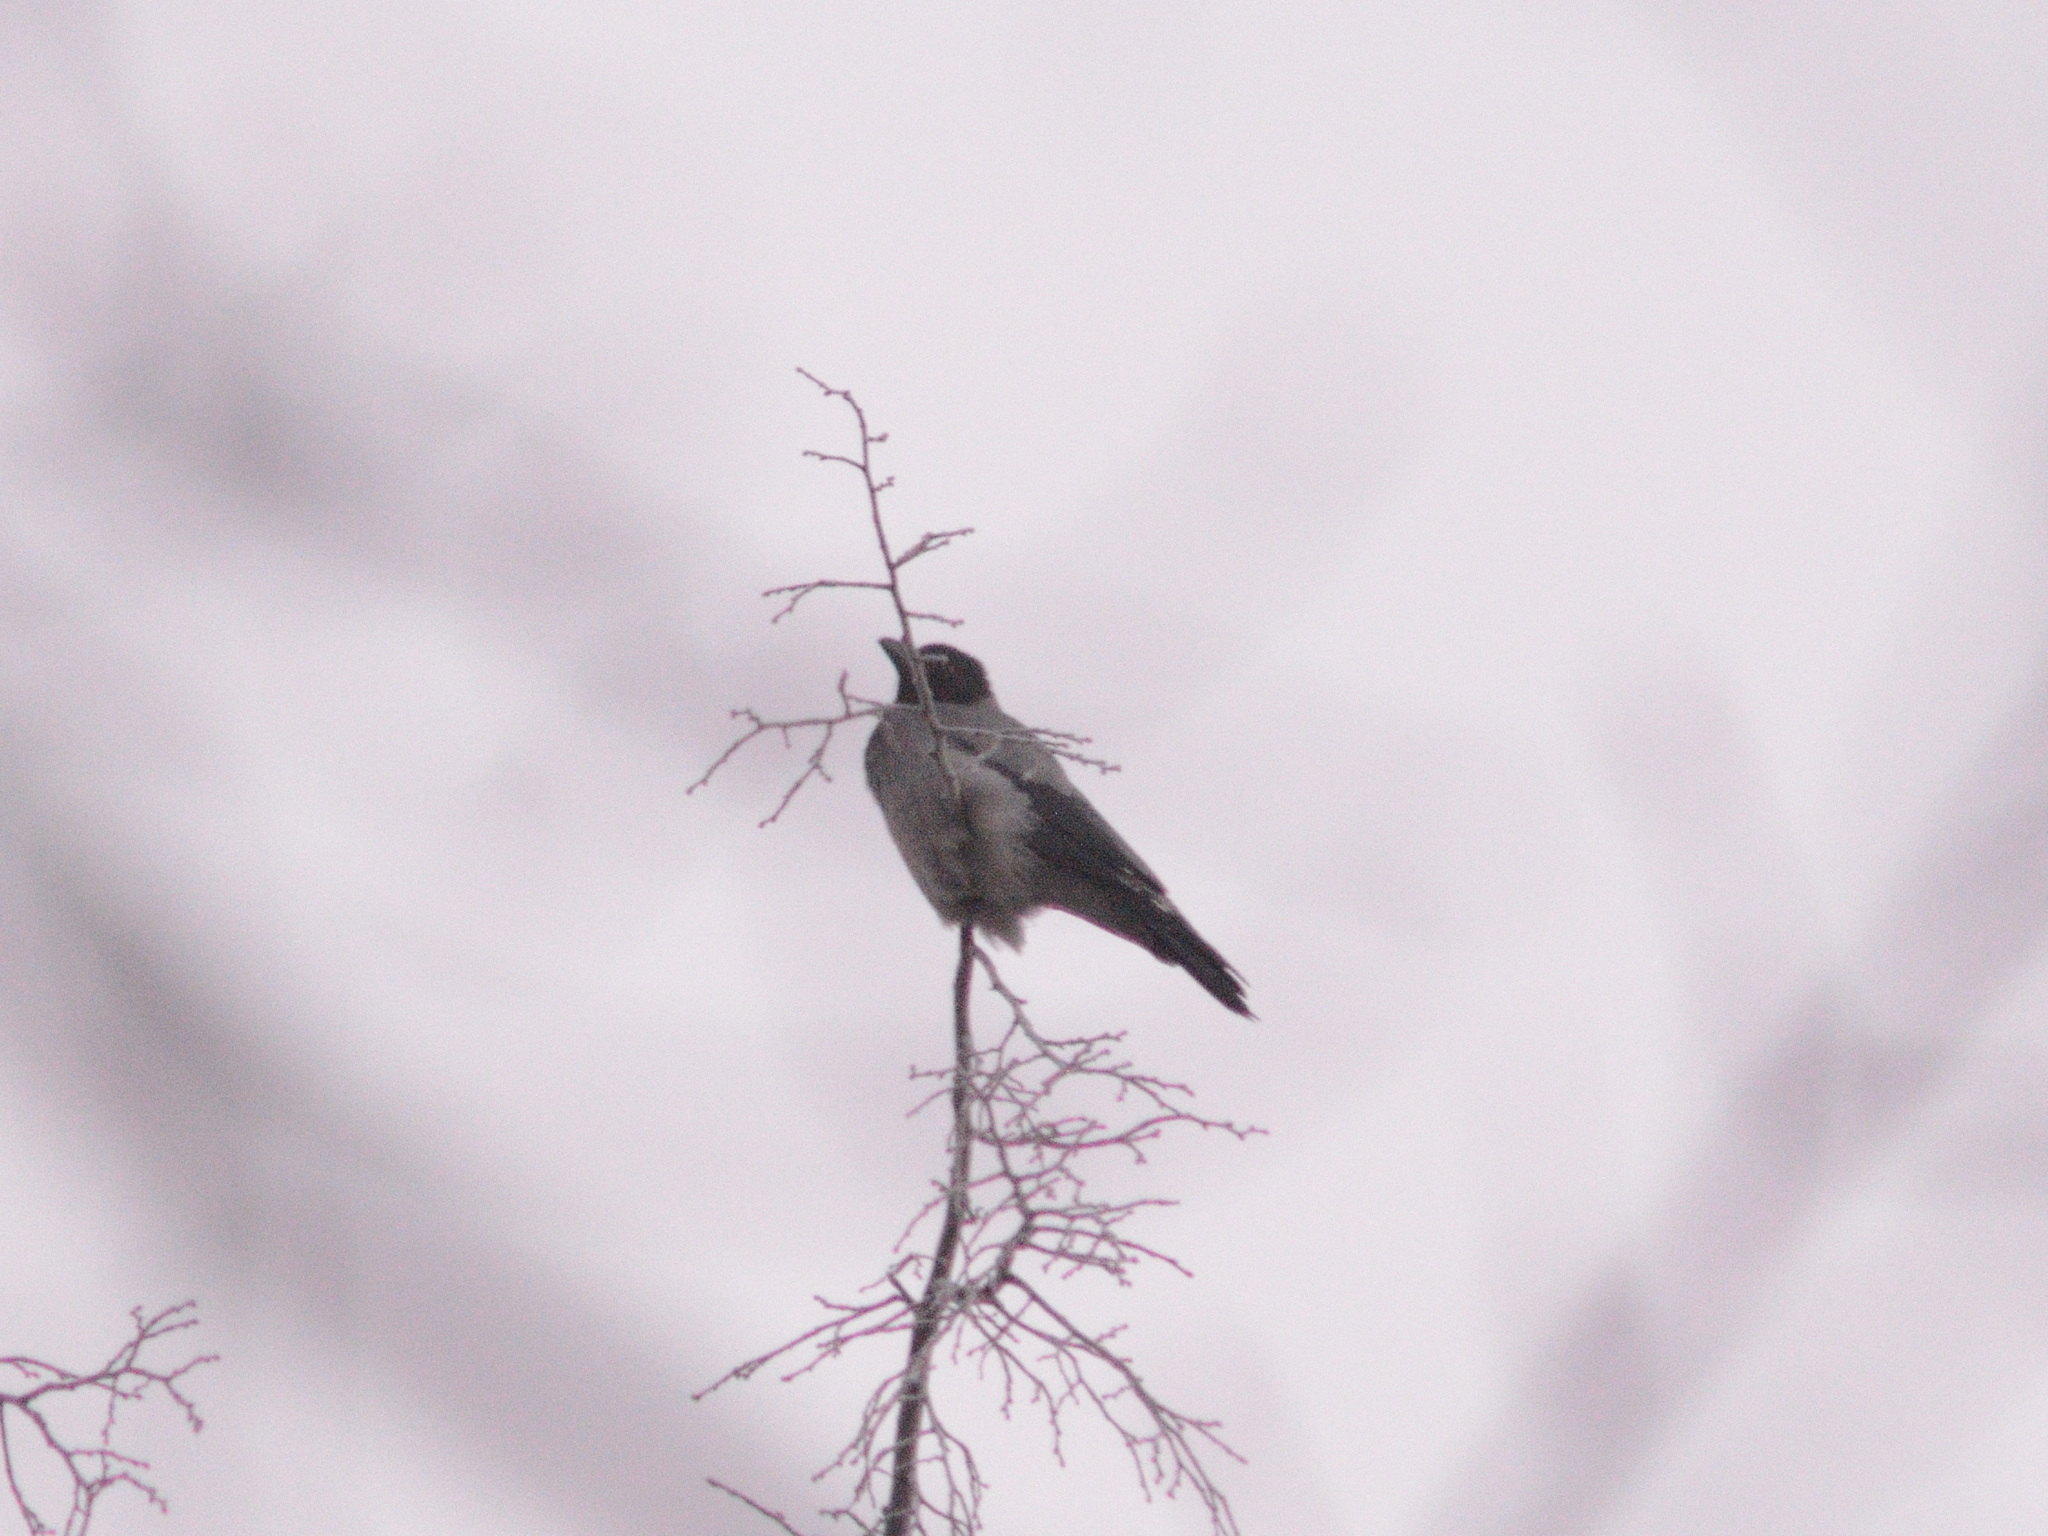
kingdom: Animalia
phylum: Chordata
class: Aves
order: Passeriformes
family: Corvidae
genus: Corvus
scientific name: Corvus cornix
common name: Hooded crow
